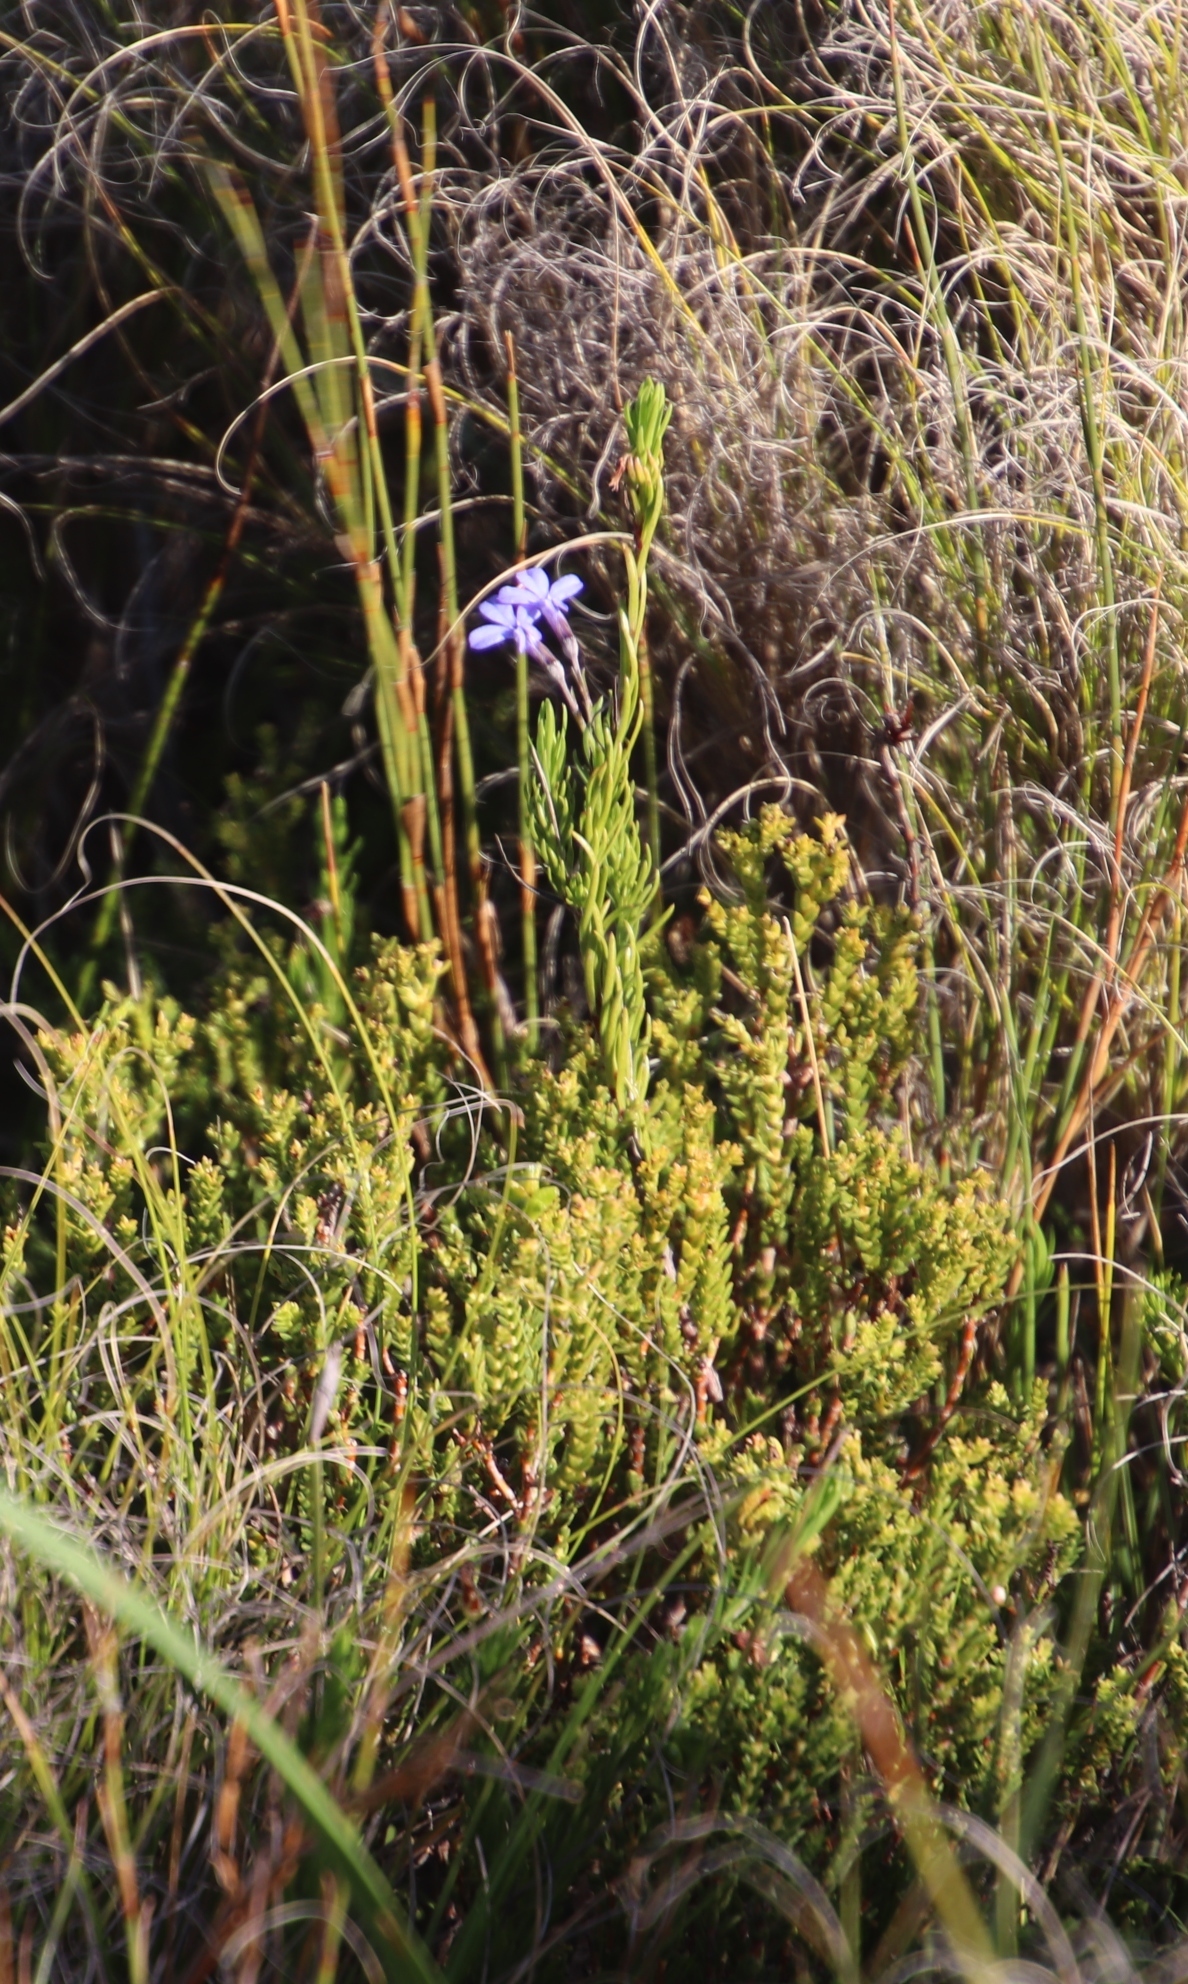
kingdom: Plantae
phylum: Tracheophyta
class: Magnoliopsida
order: Asterales
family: Campanulaceae
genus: Lobelia
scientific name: Lobelia pinifolia
